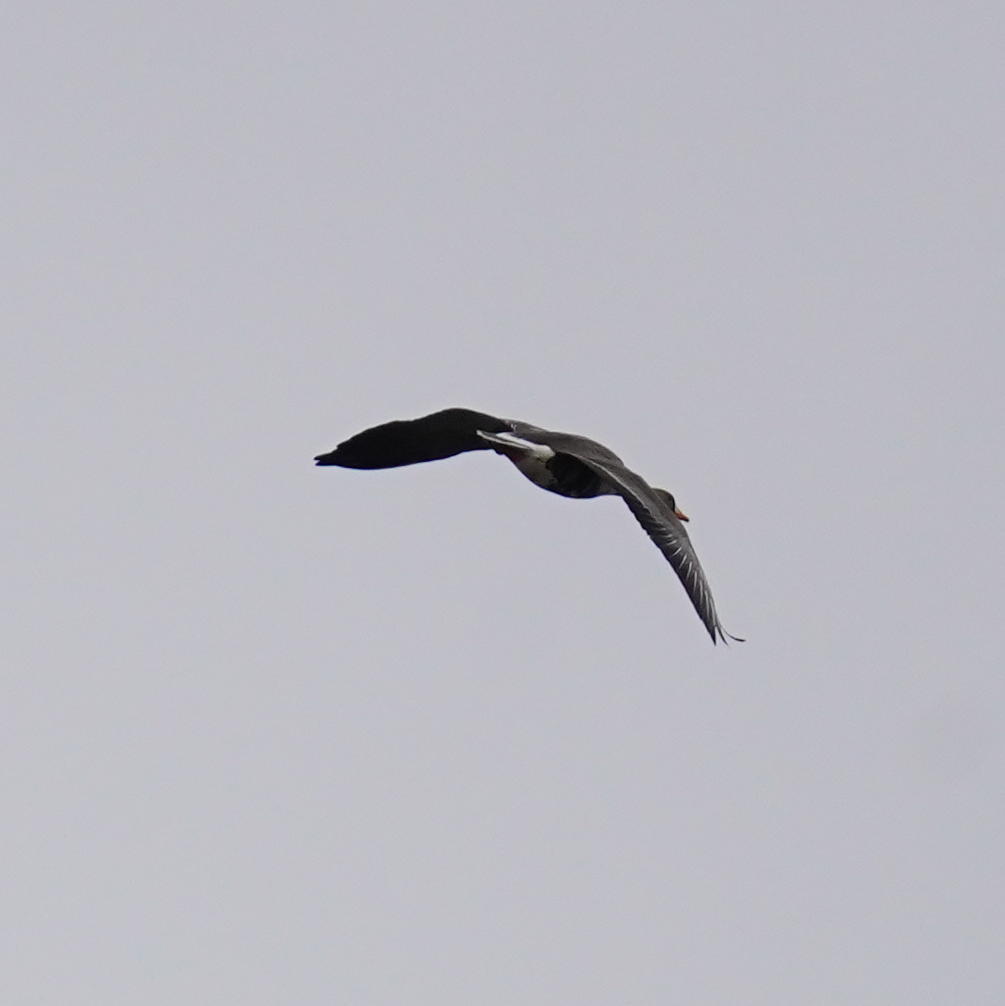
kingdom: Animalia
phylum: Chordata
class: Aves
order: Anseriformes
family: Anatidae
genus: Anser
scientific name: Anser albifrons
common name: Greater white-fronted goose
